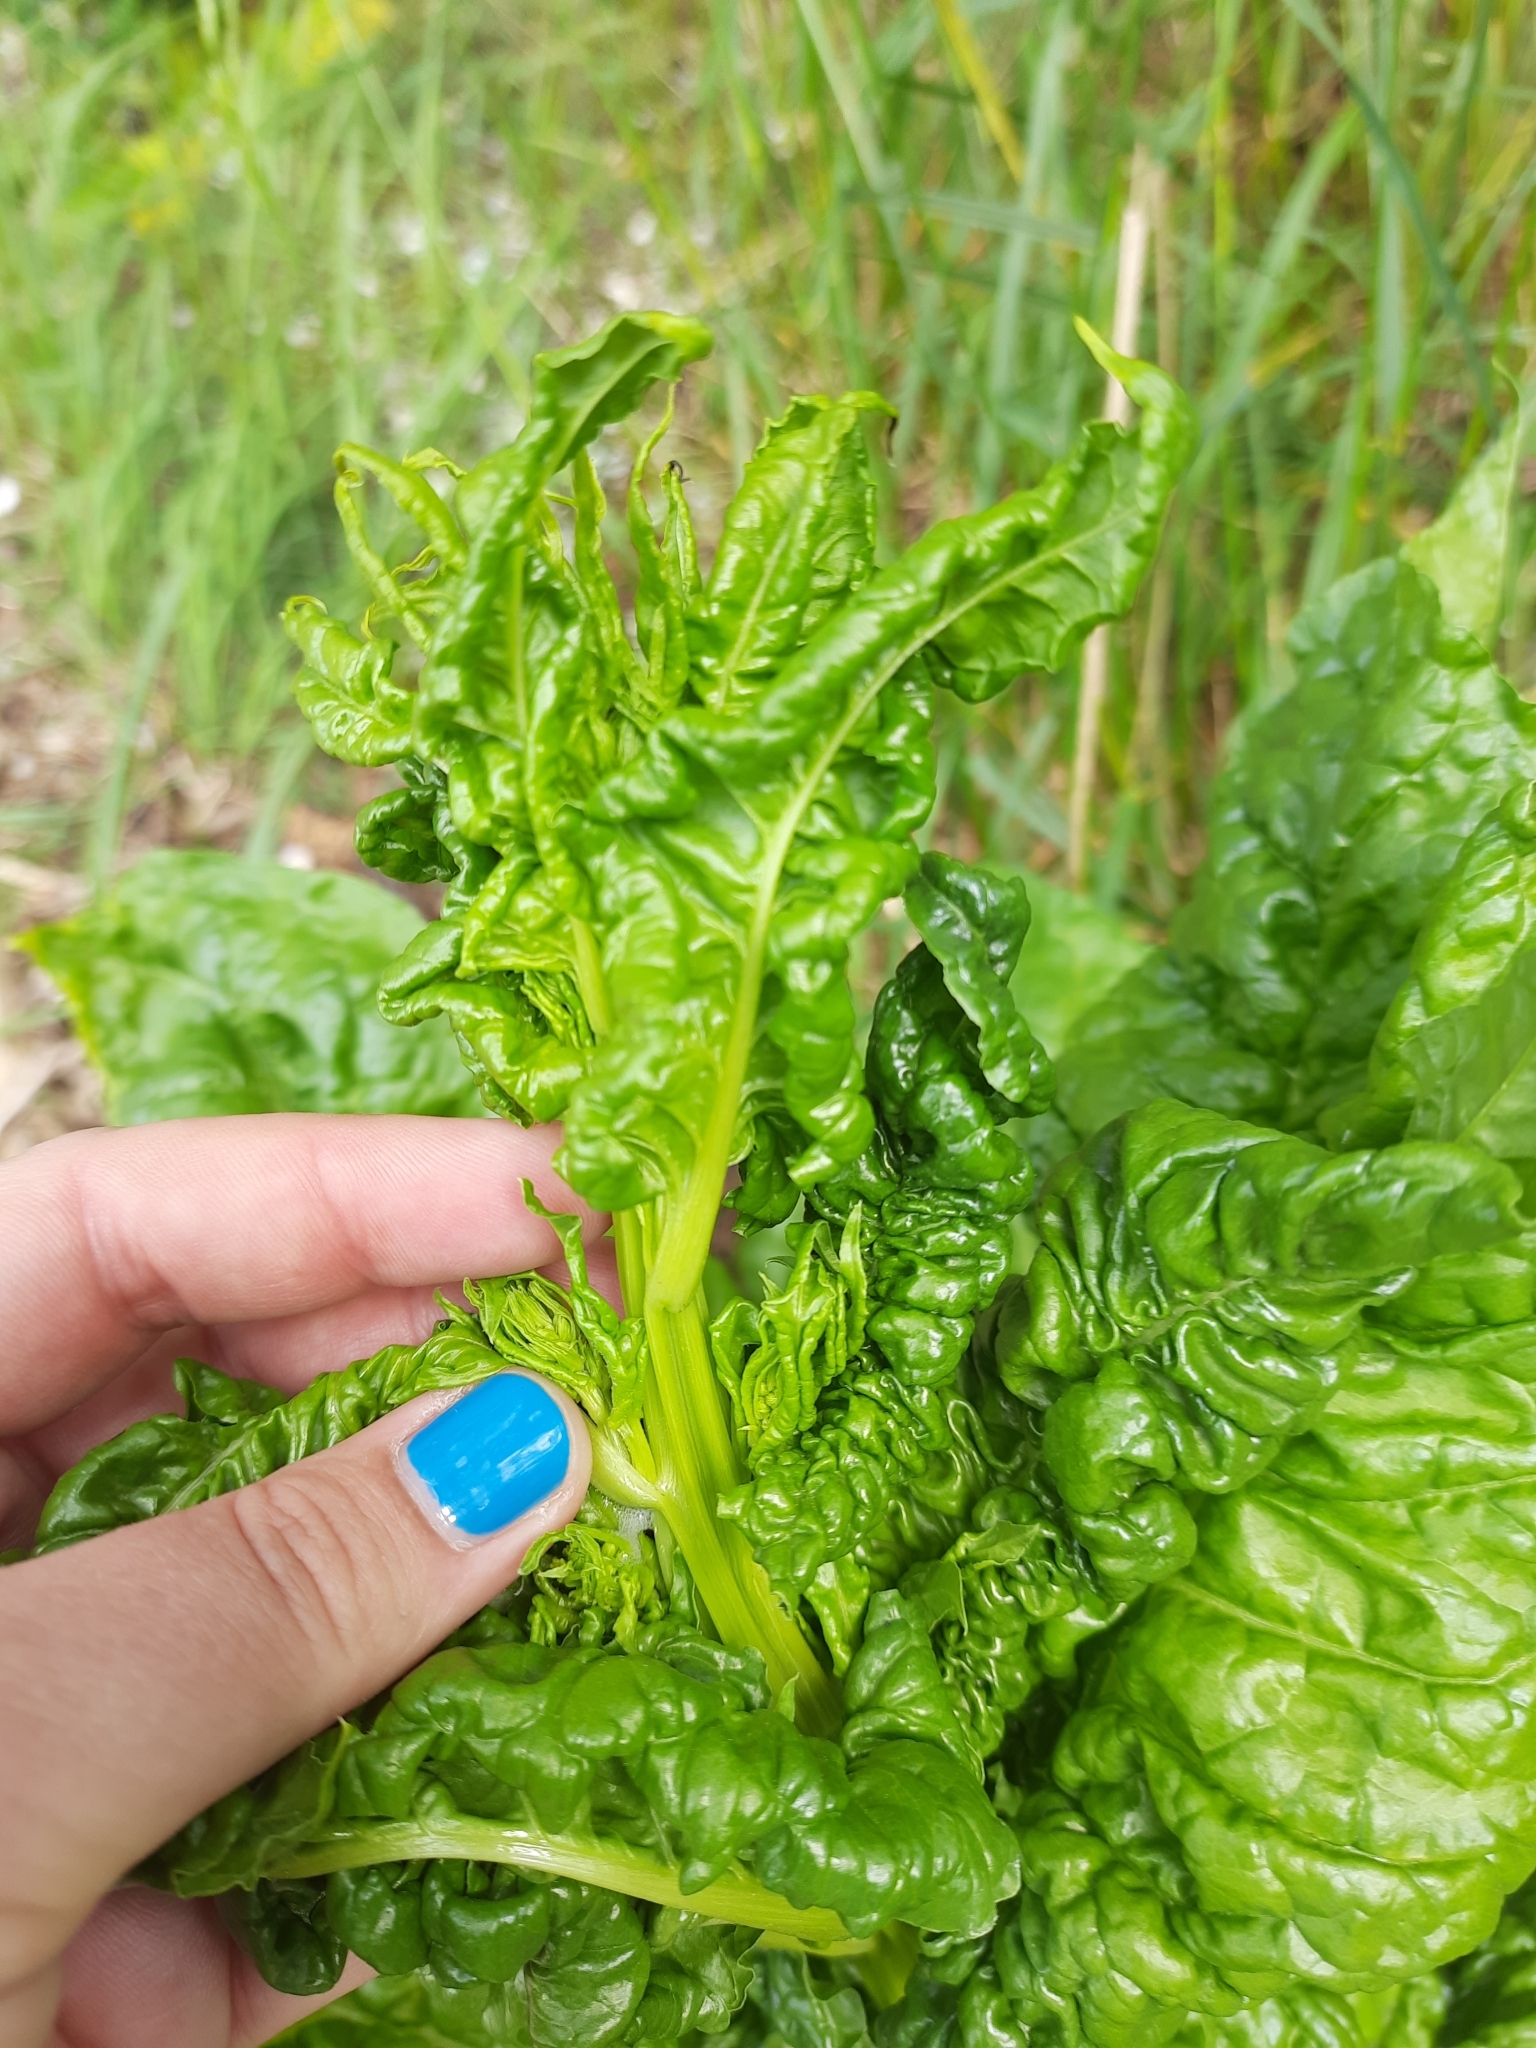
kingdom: Plantae
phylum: Tracheophyta
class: Magnoliopsida
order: Caryophyllales
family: Amaranthaceae
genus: Beta
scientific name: Beta vulgaris
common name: Beet
